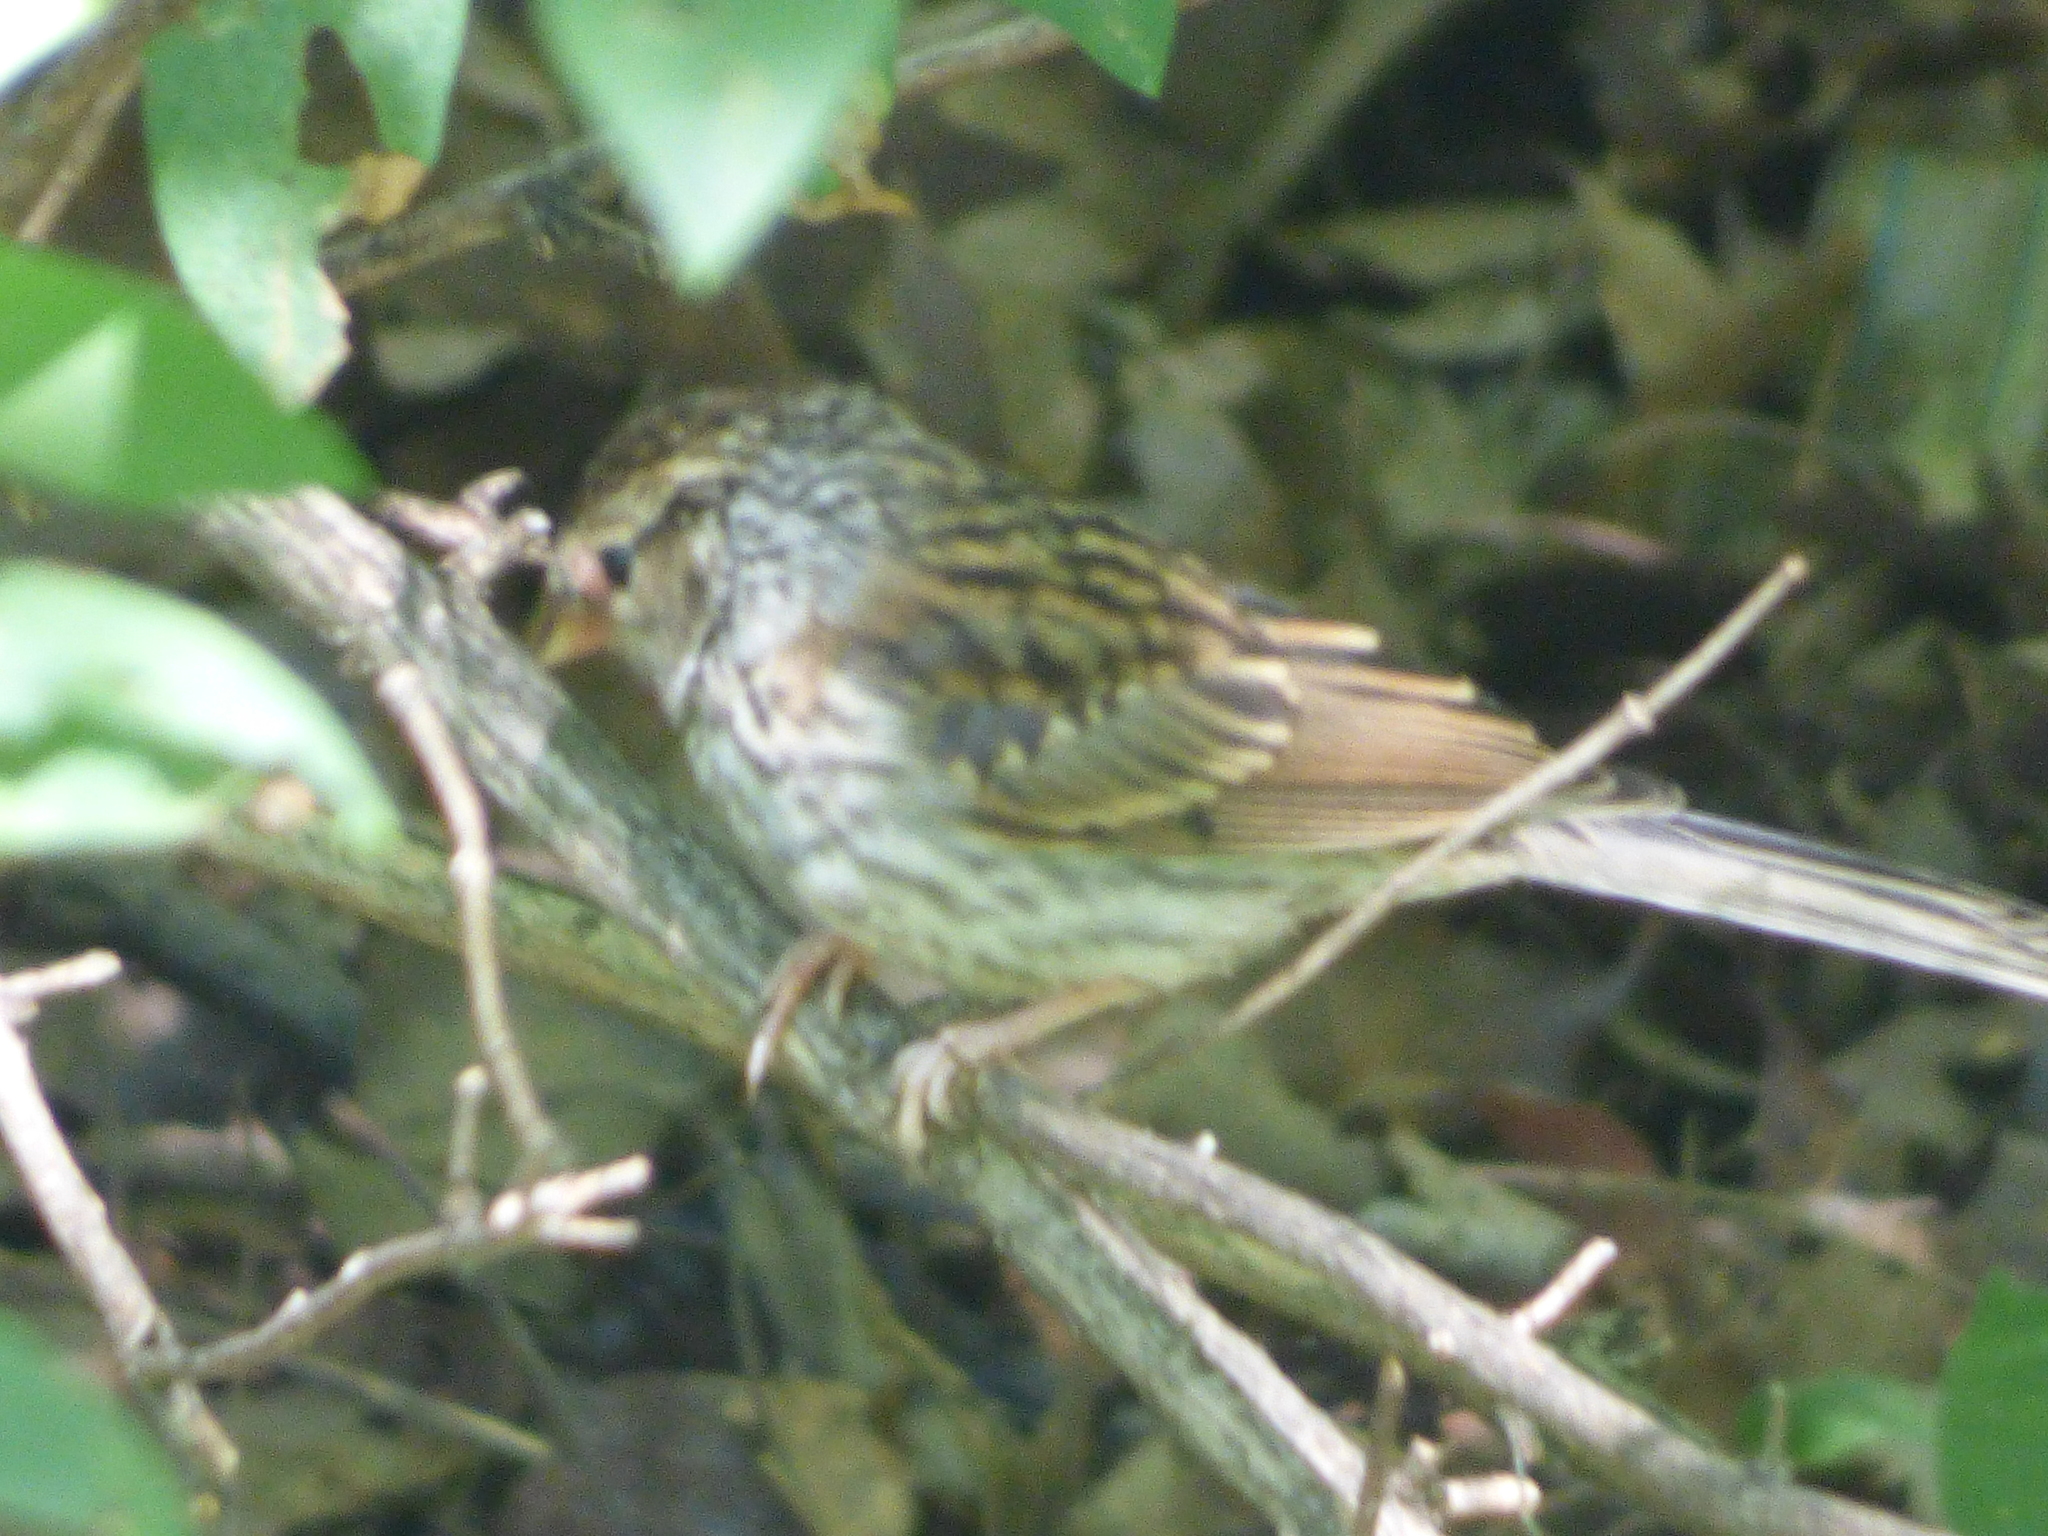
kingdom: Animalia
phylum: Chordata
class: Aves
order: Passeriformes
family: Passerellidae
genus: Spizella
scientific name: Spizella passerina
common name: Chipping sparrow
